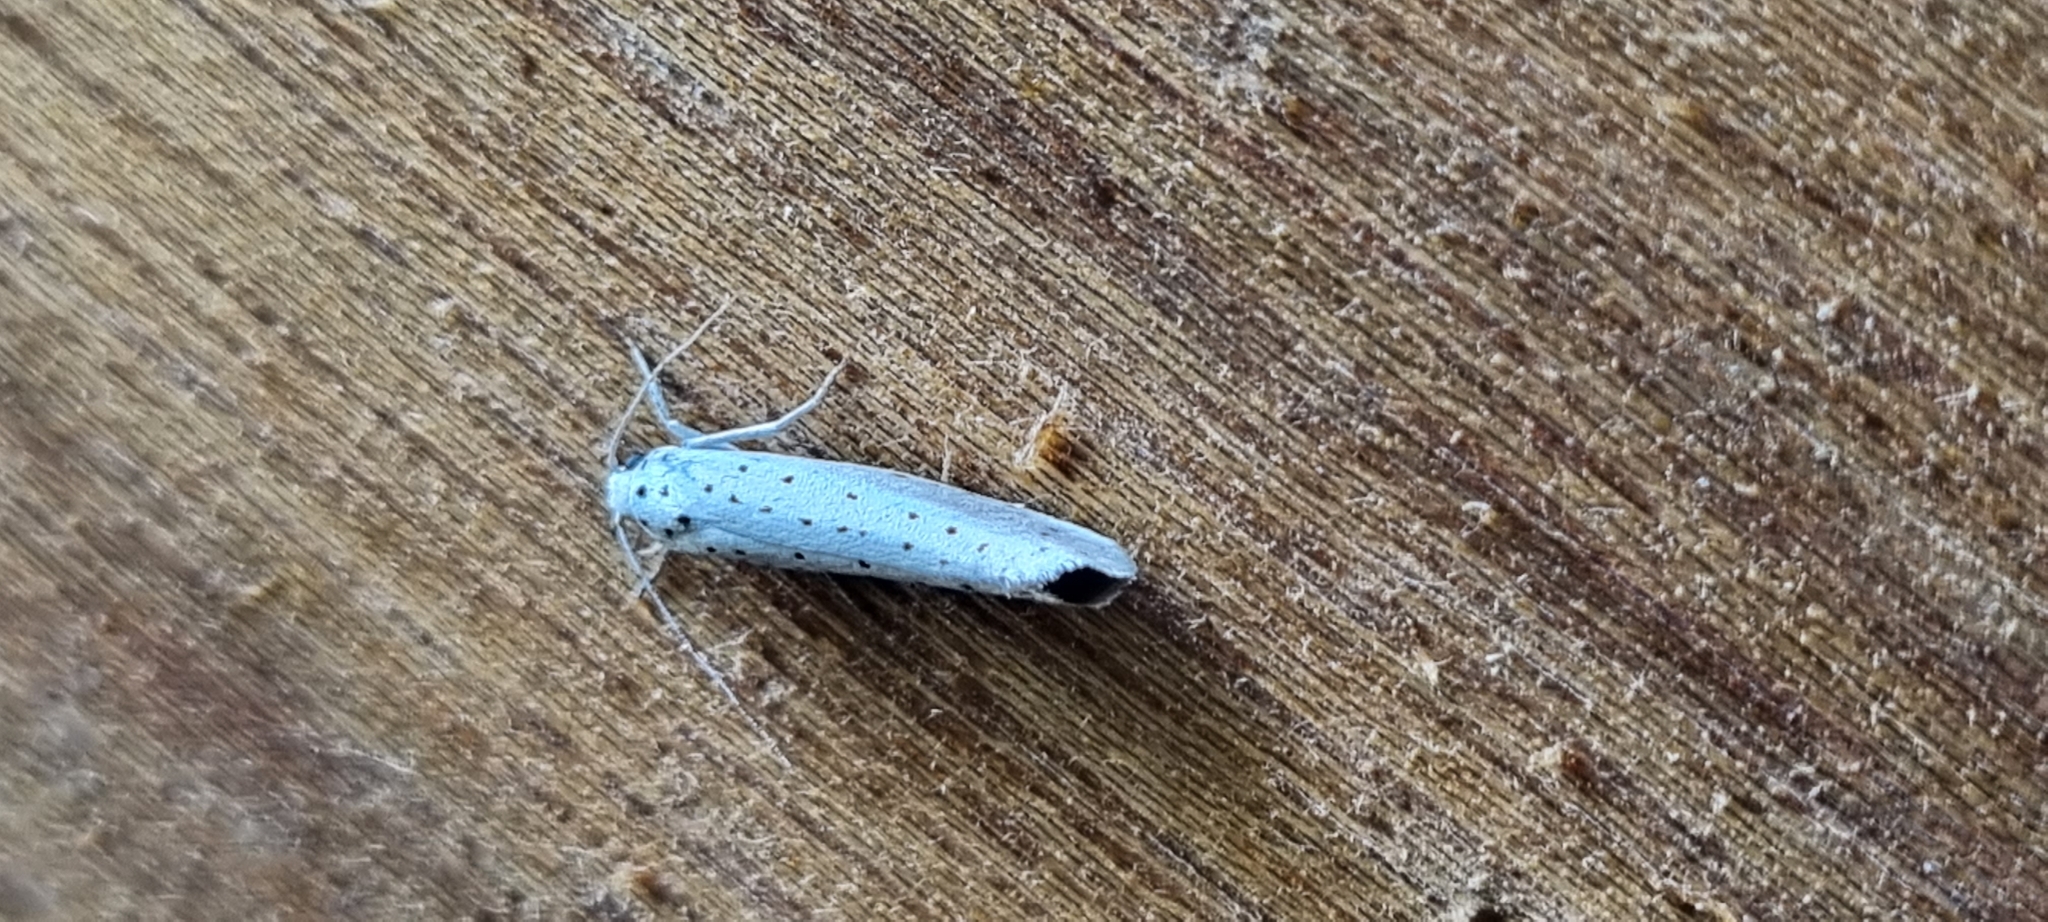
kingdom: Animalia
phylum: Arthropoda
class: Insecta
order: Lepidoptera
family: Yponomeutidae
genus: Yponomeuta
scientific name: Yponomeuta
